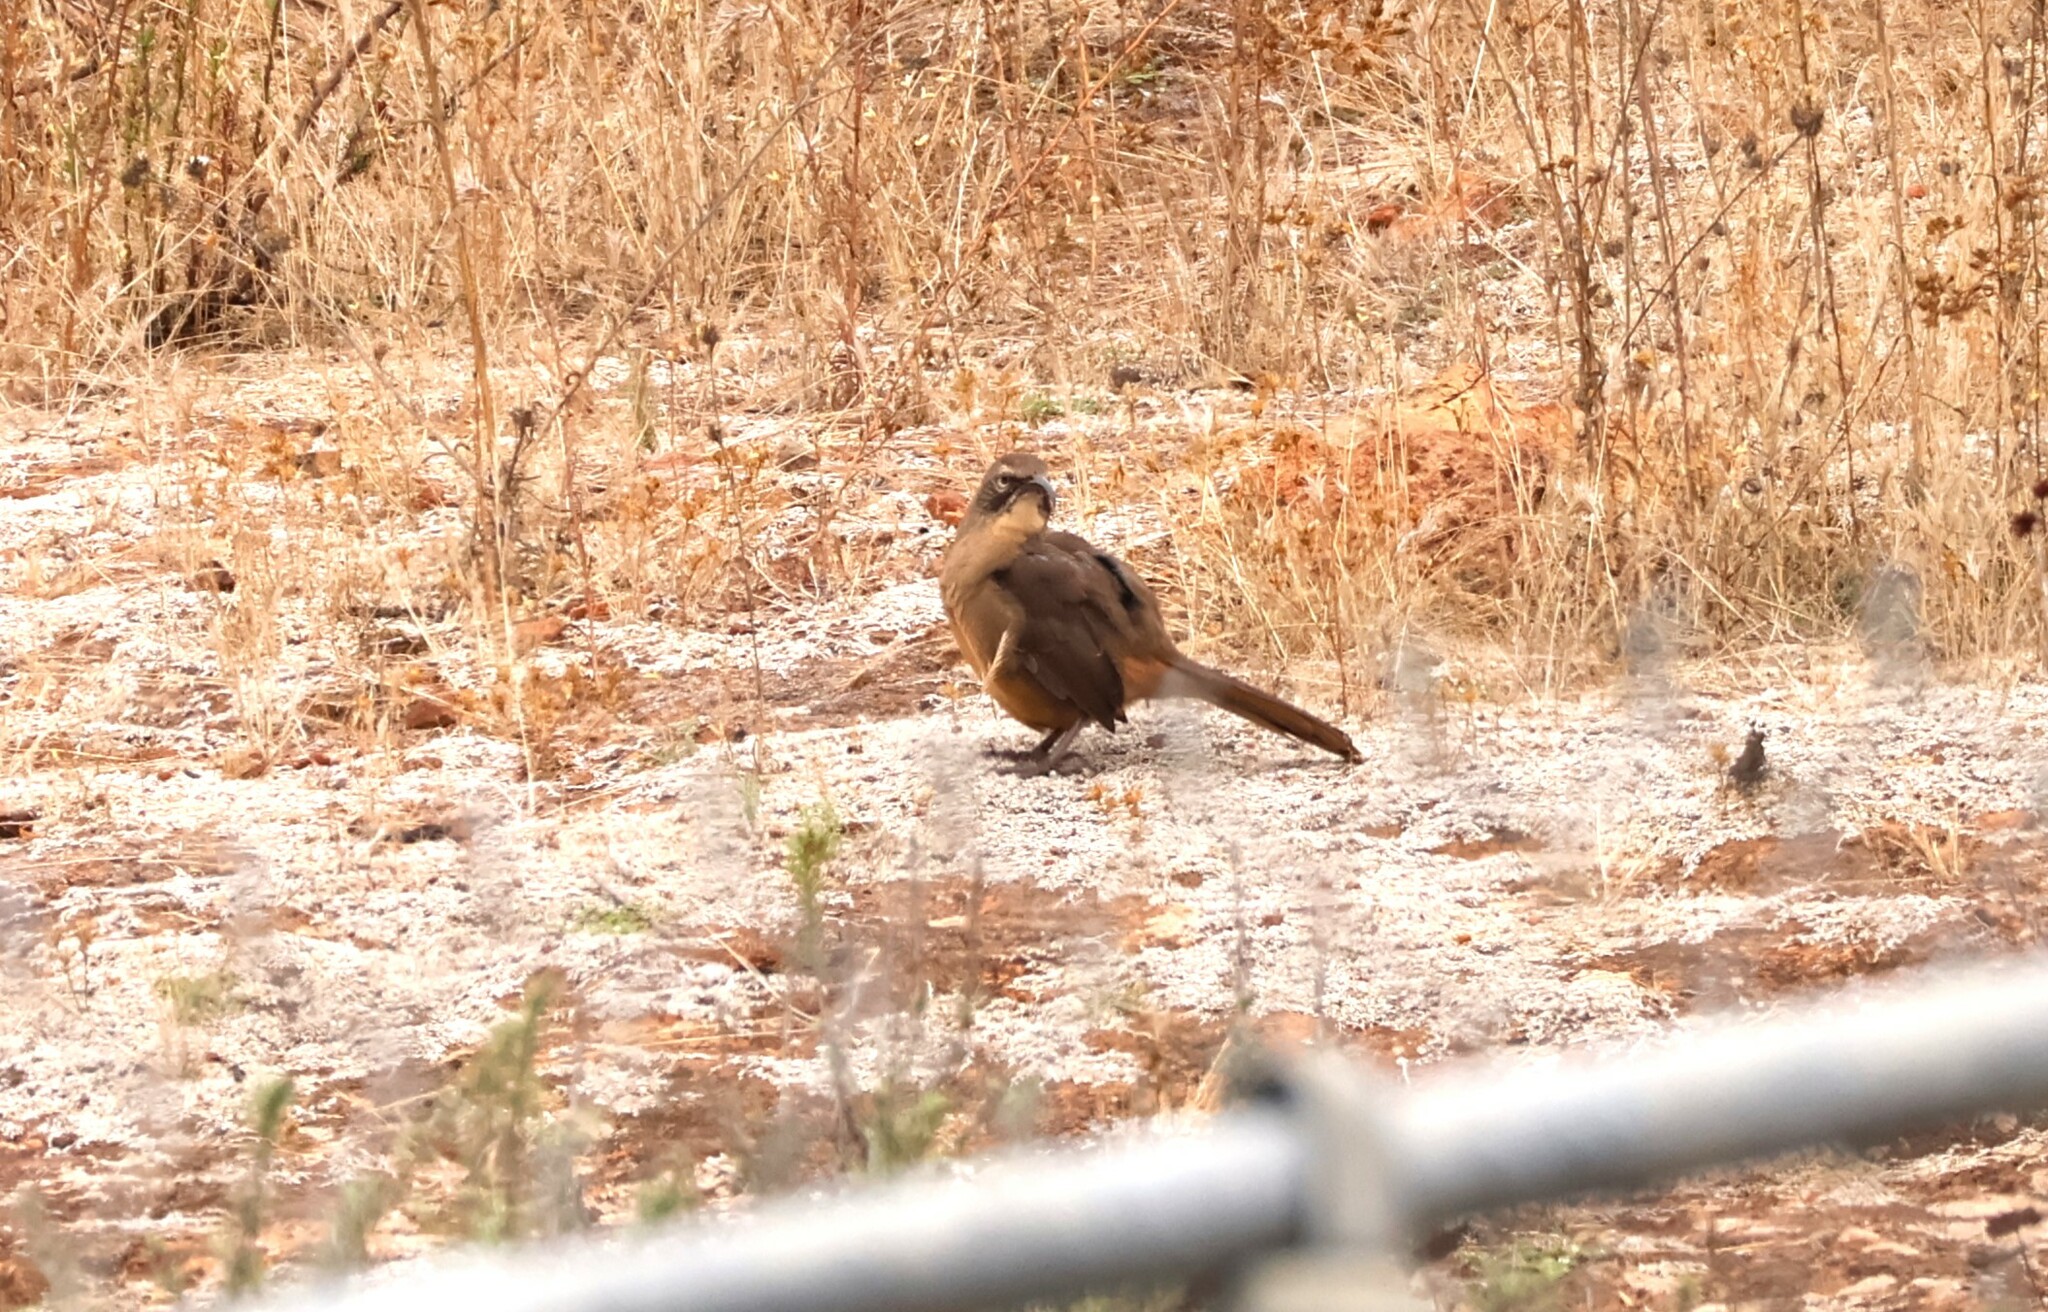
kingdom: Animalia
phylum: Chordata
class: Aves
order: Passeriformes
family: Mimidae
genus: Toxostoma
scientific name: Toxostoma redivivum
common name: California thrasher
